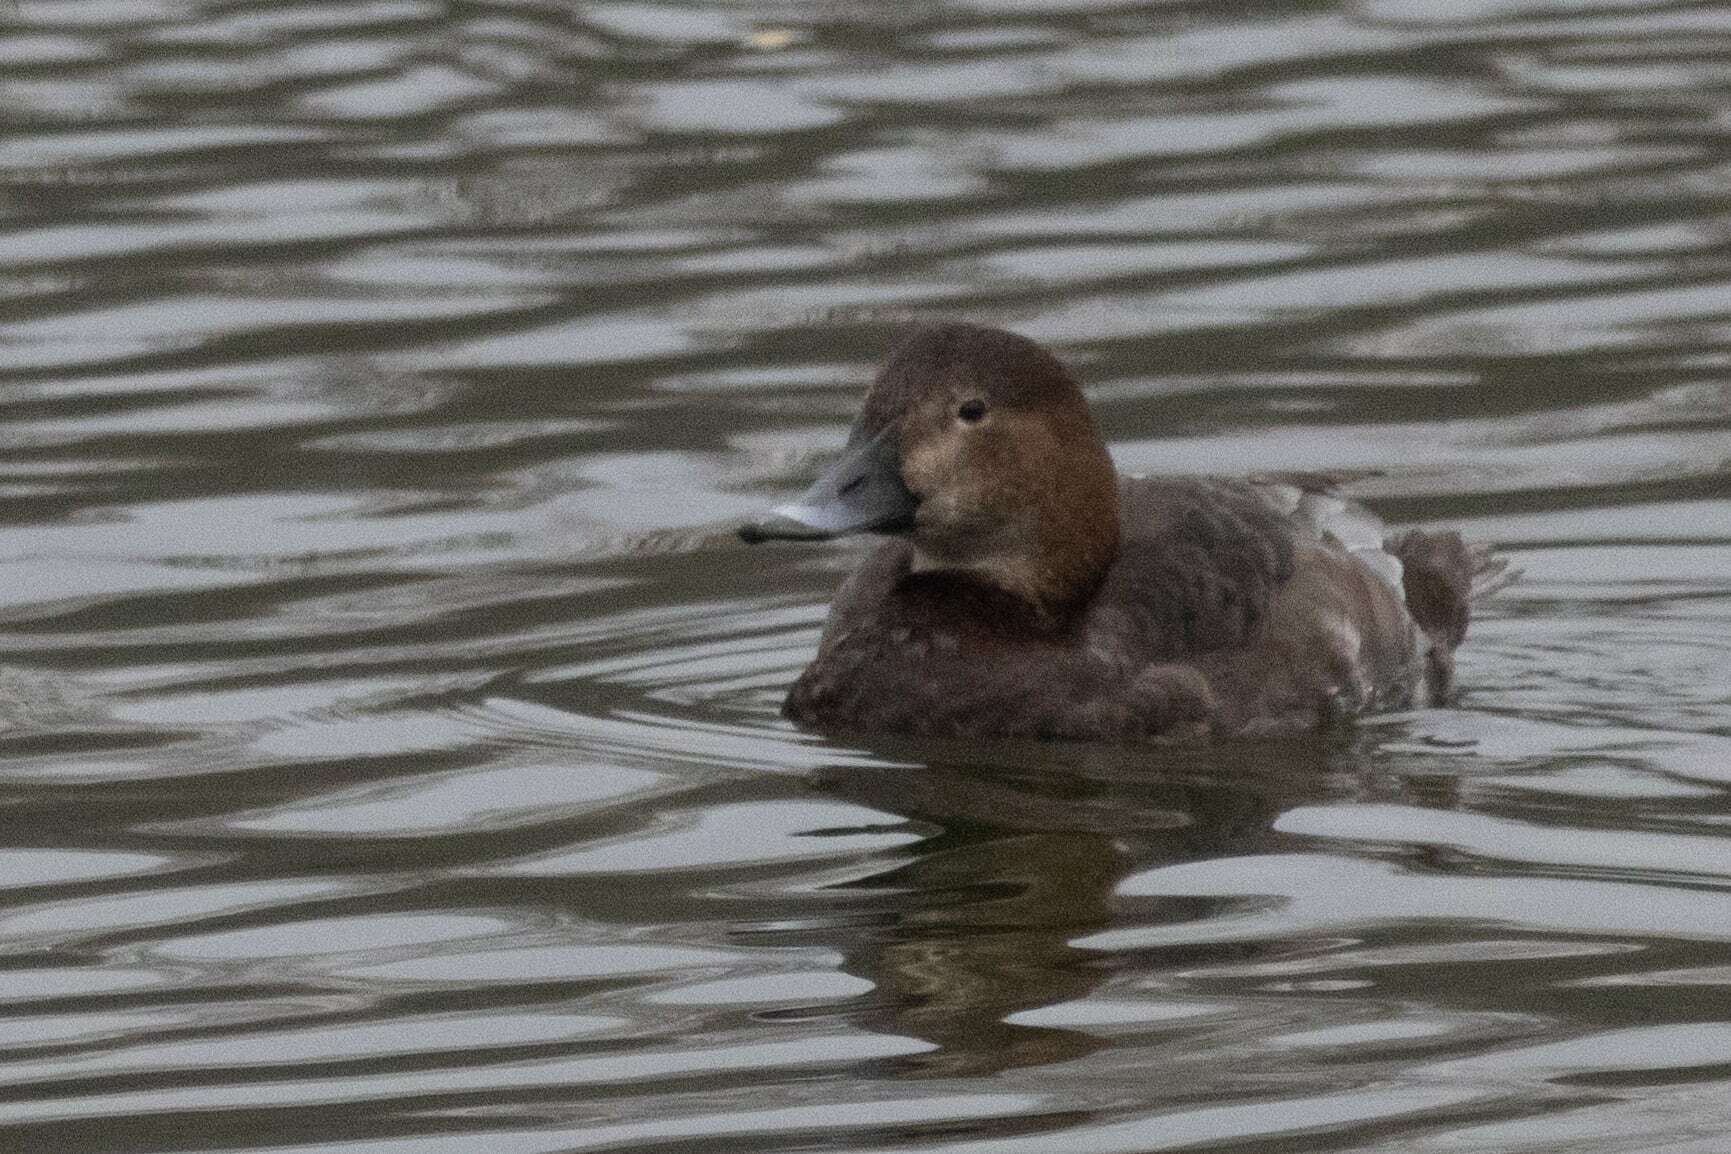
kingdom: Animalia
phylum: Chordata
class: Aves
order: Anseriformes
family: Anatidae
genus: Aythya
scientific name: Aythya ferina
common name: Common pochard
